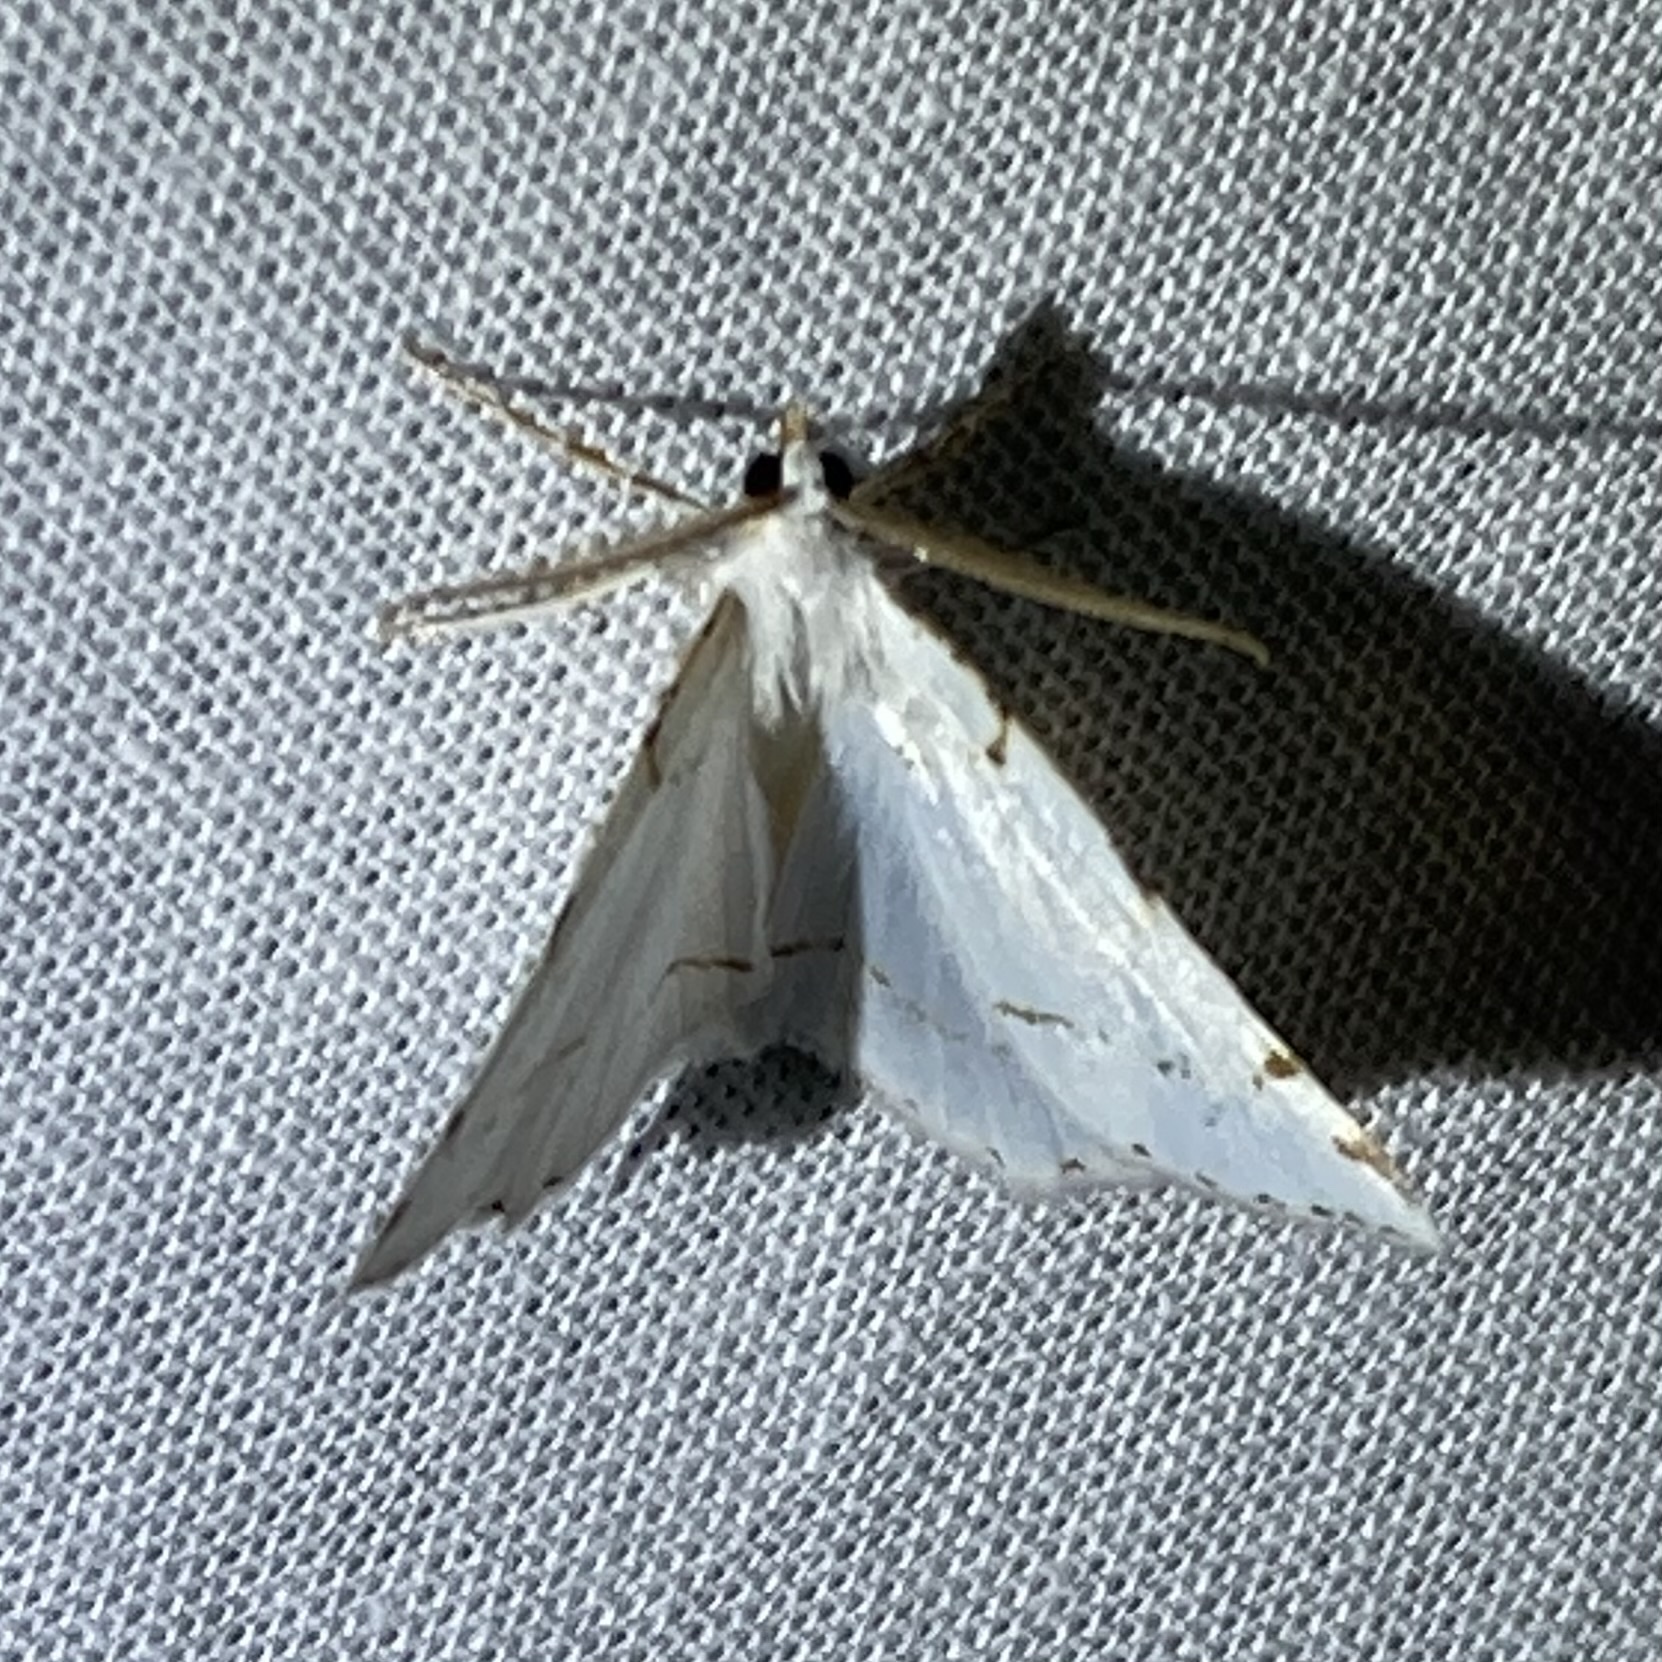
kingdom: Animalia
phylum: Arthropoda
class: Insecta
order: Lepidoptera
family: Geometridae
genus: Macaria
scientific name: Macaria pustularia
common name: Lesser maple spanworm moth
